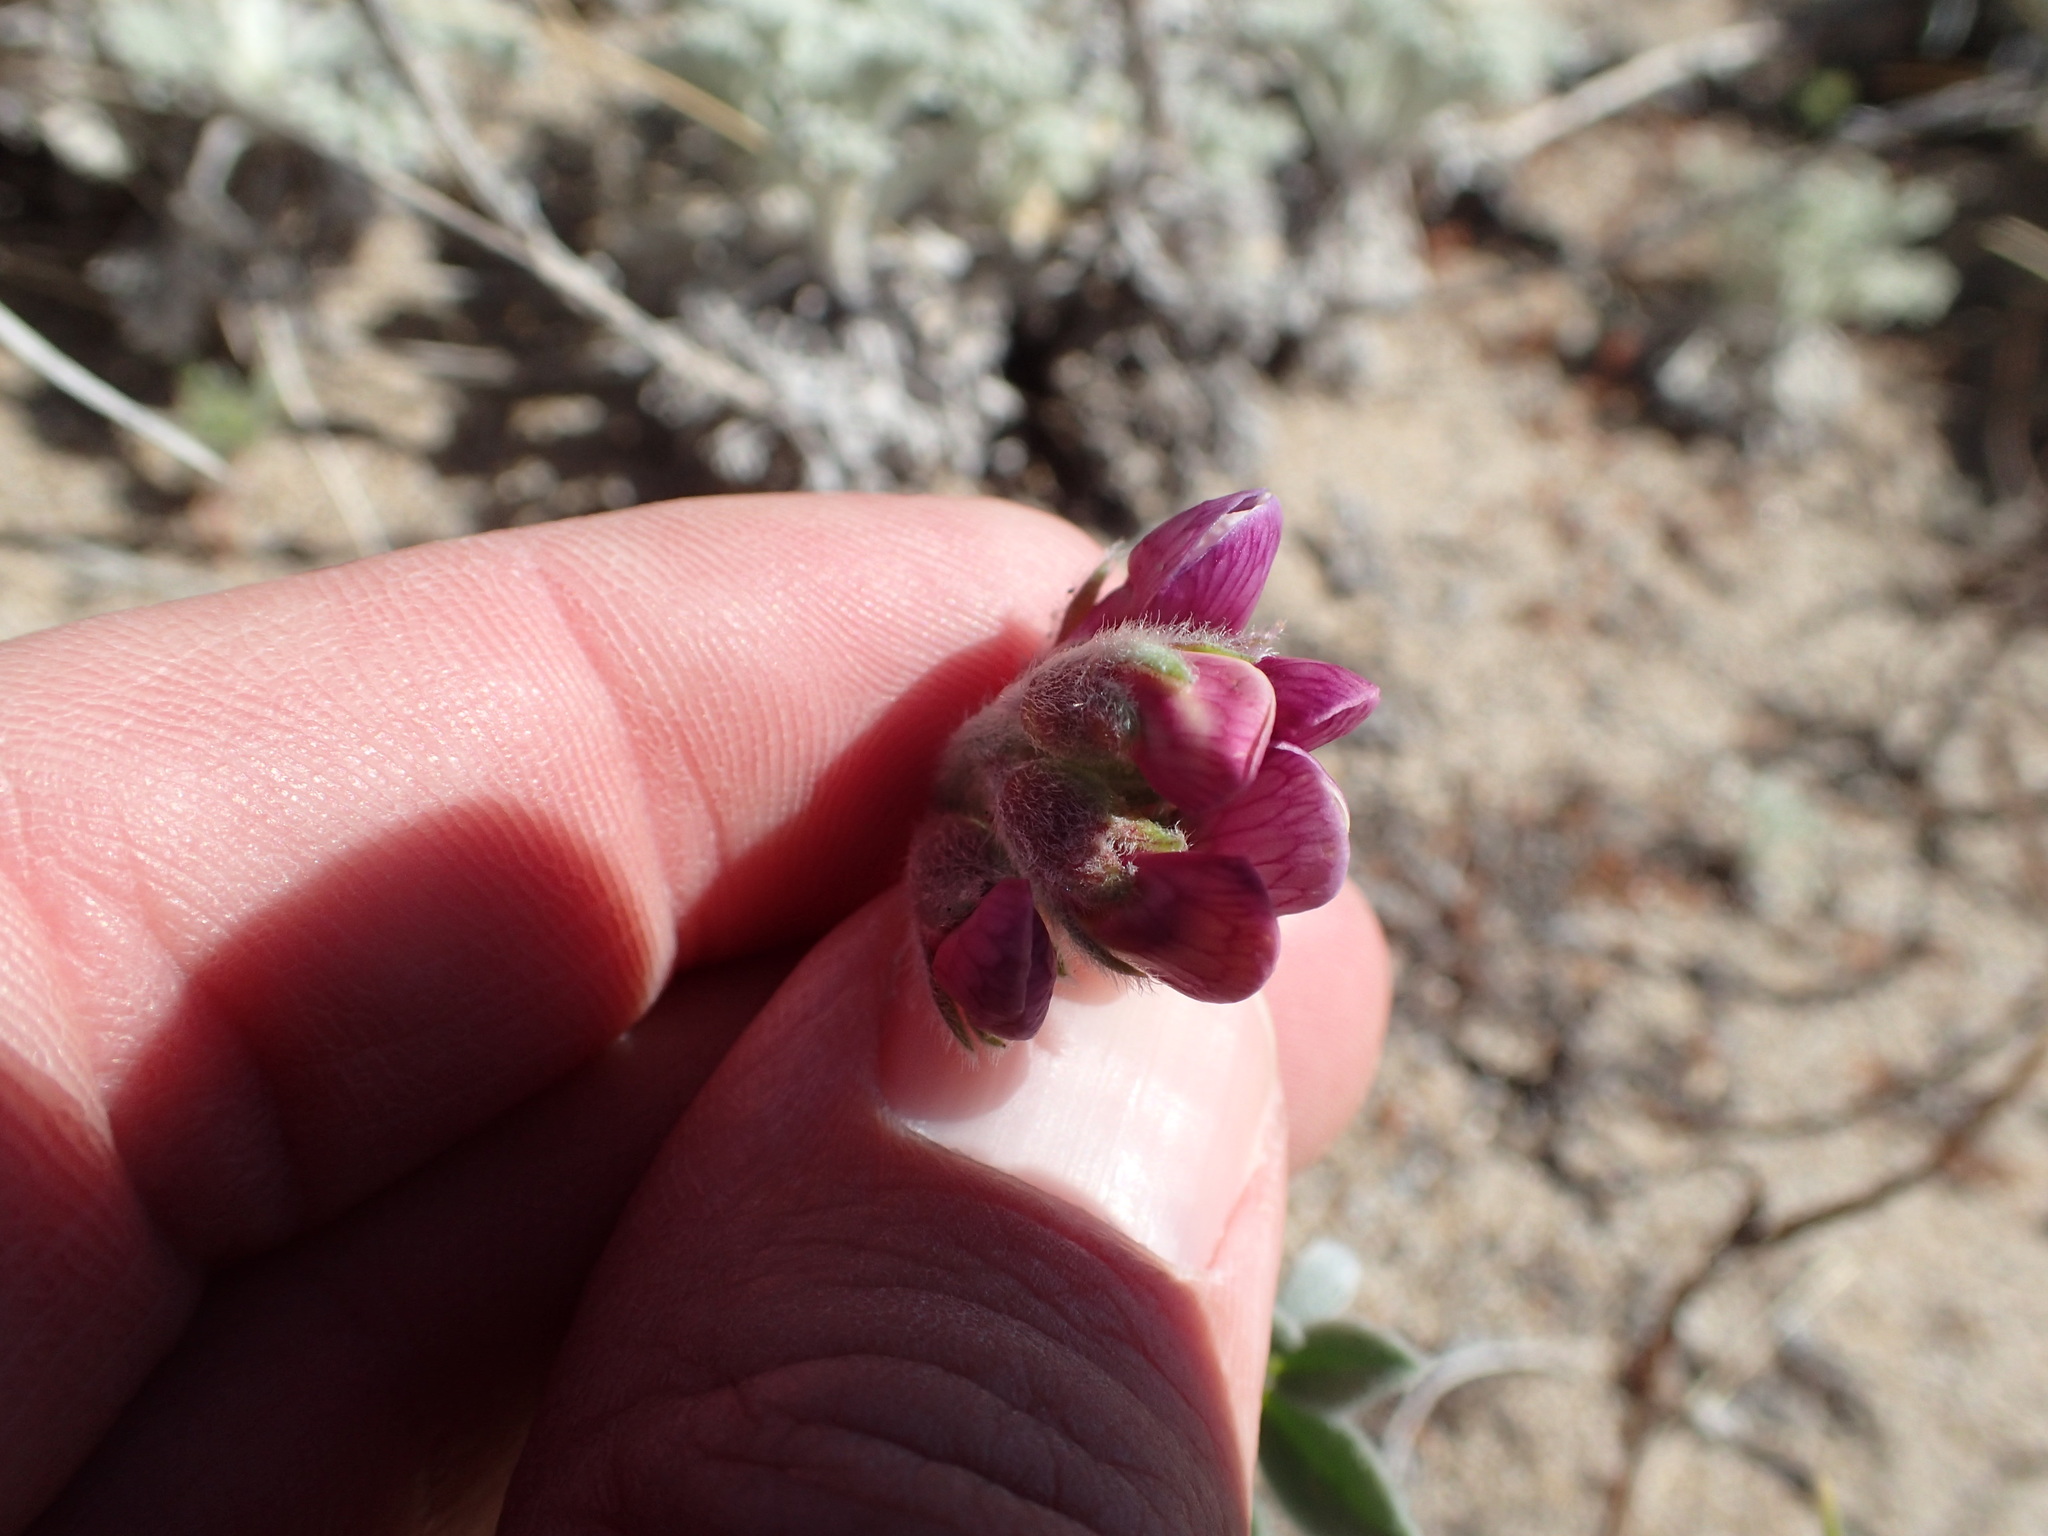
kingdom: Plantae
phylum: Tracheophyta
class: Magnoliopsida
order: Fabales
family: Fabaceae
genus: Lathyrus
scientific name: Lathyrus littoralis
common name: Dune sweet pea
